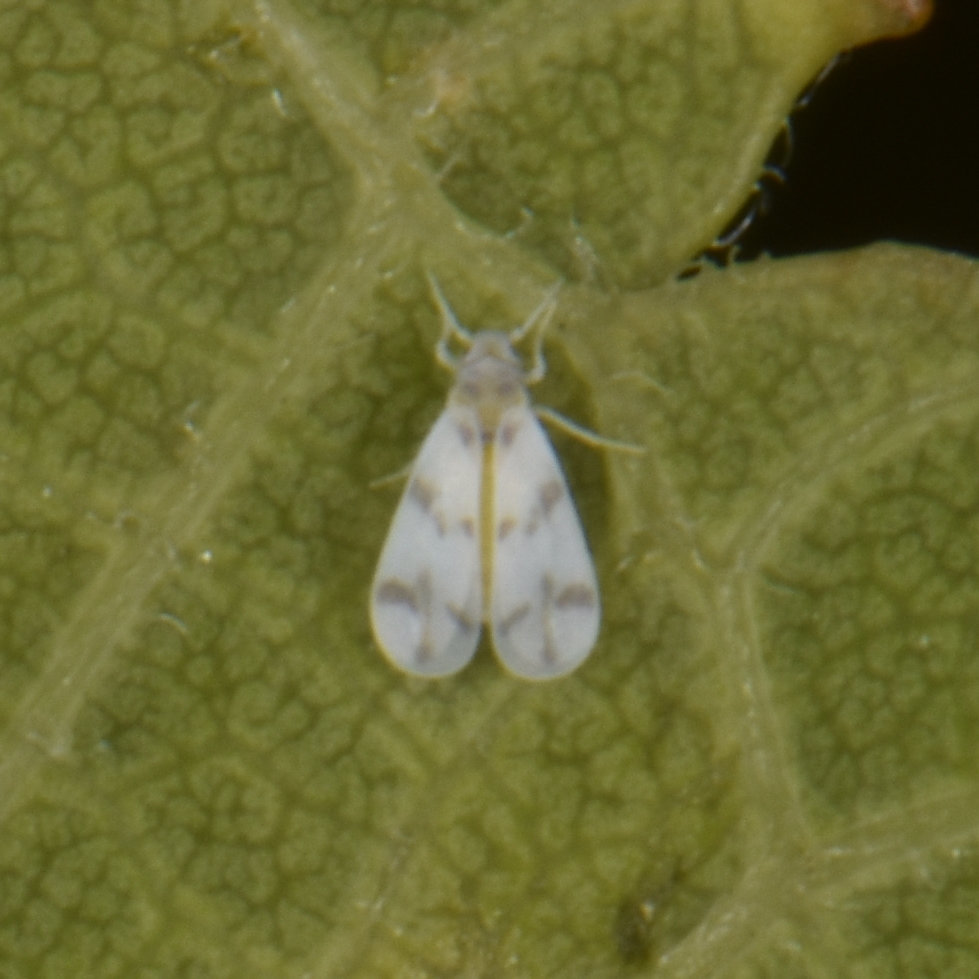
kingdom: Animalia
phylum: Arthropoda
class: Insecta
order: Hemiptera
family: Aleyrodidae
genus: Tetraleurodes
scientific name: Tetraleurodes mori
